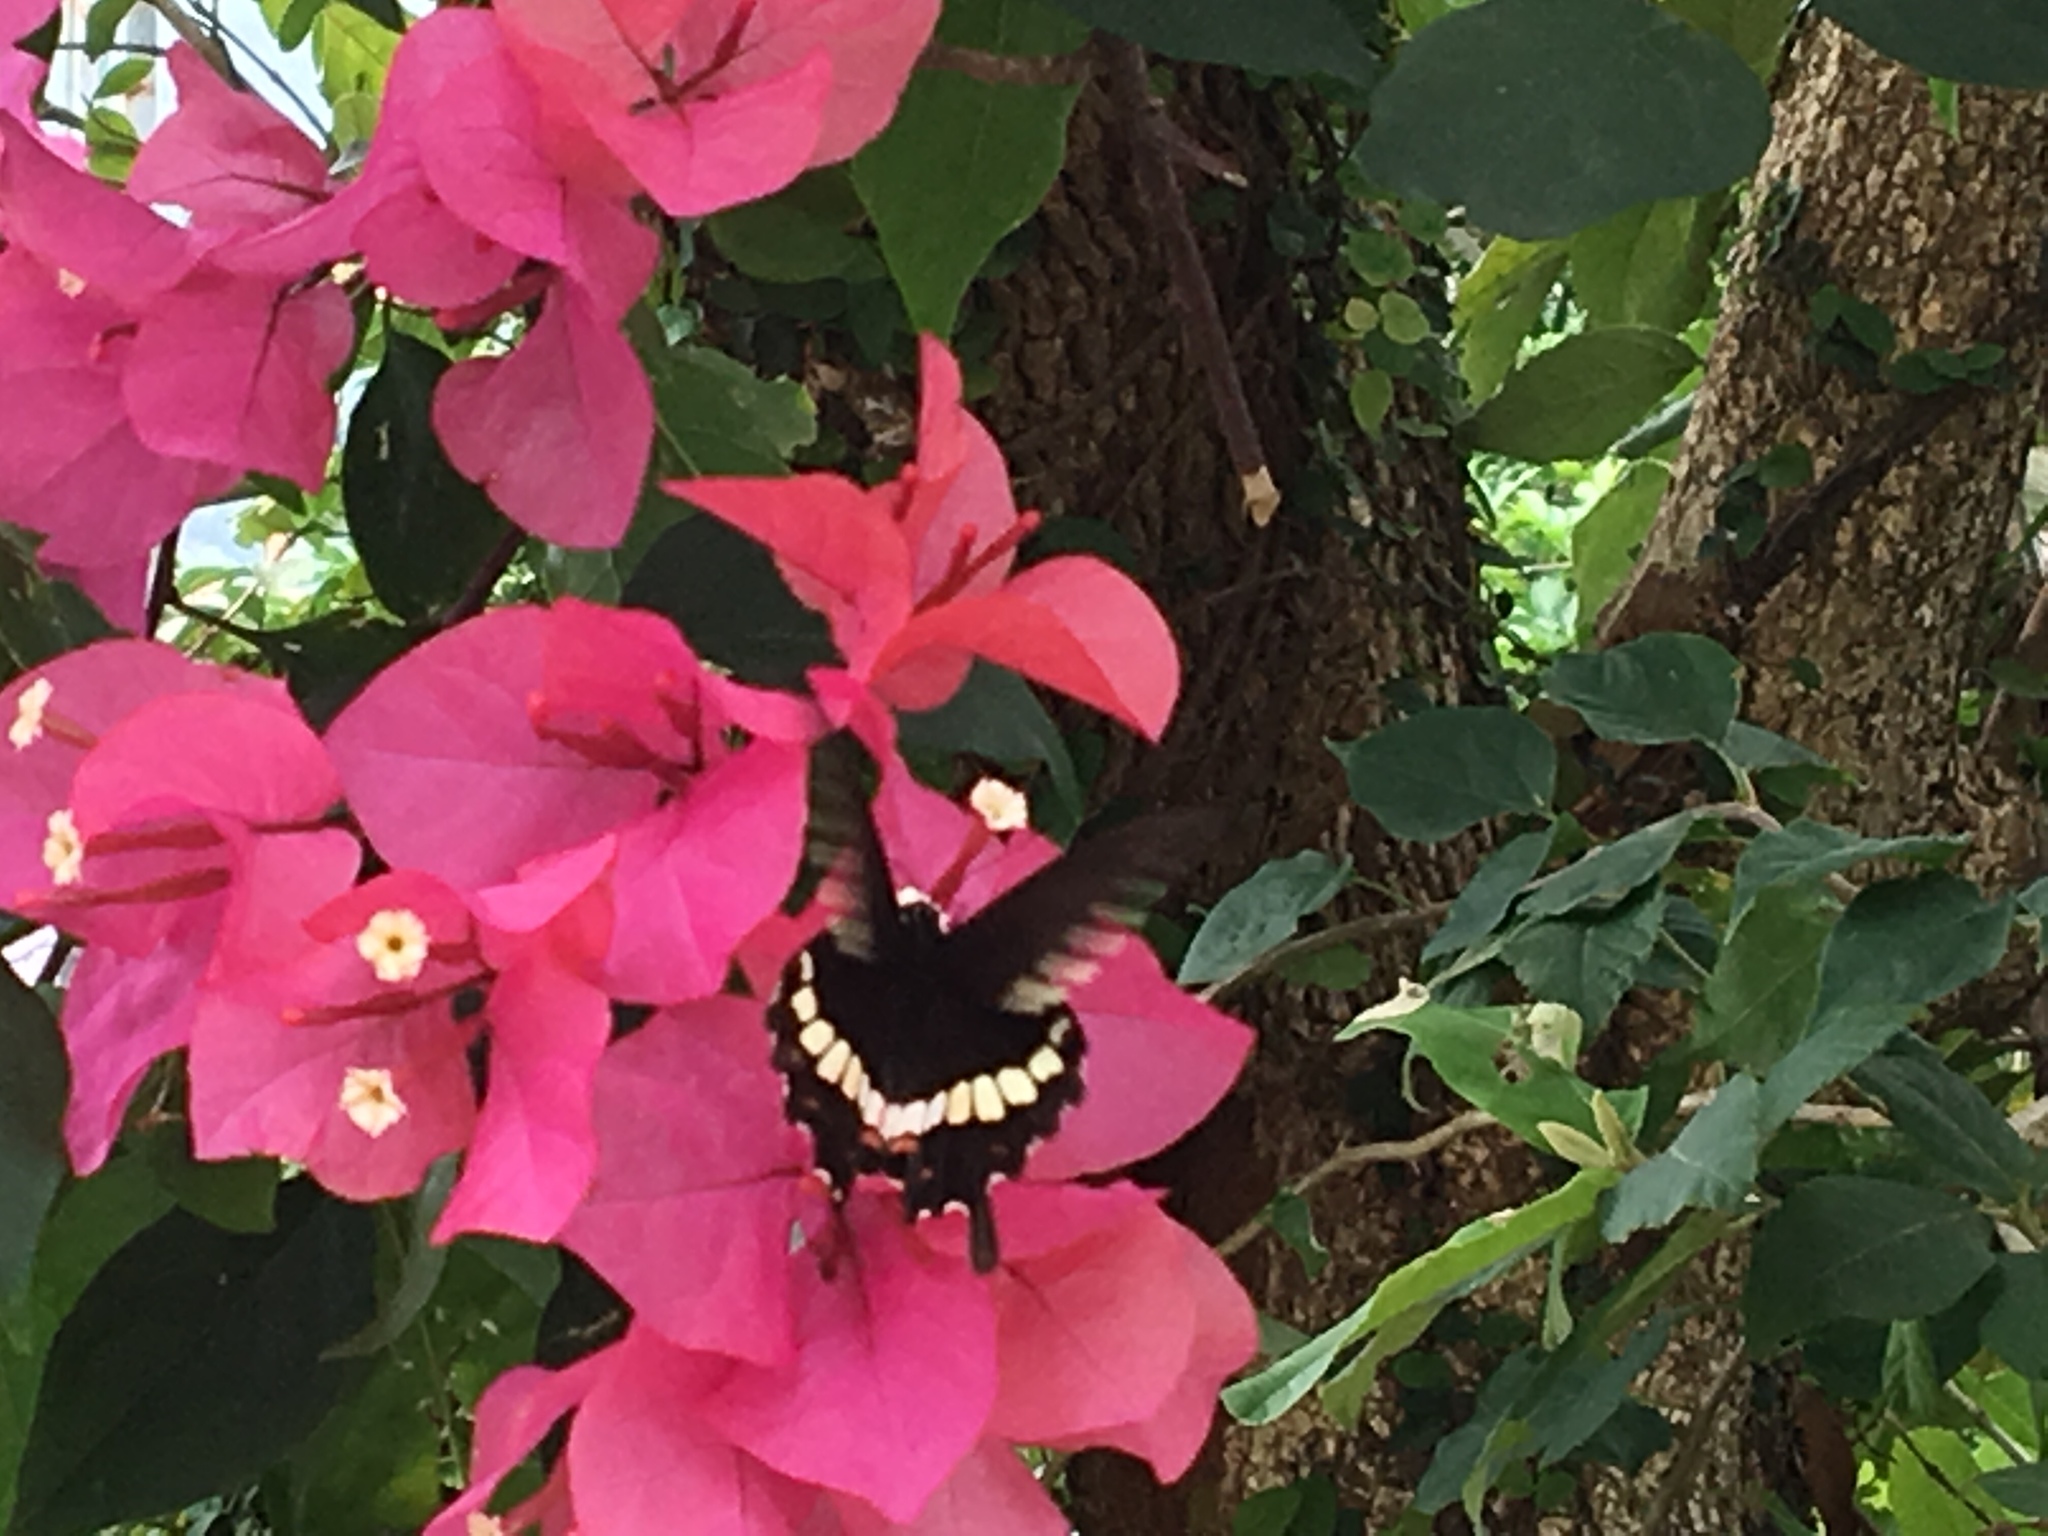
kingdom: Animalia
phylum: Arthropoda
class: Insecta
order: Lepidoptera
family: Papilionidae
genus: Papilio
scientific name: Papilio polytes
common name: Common mormon
